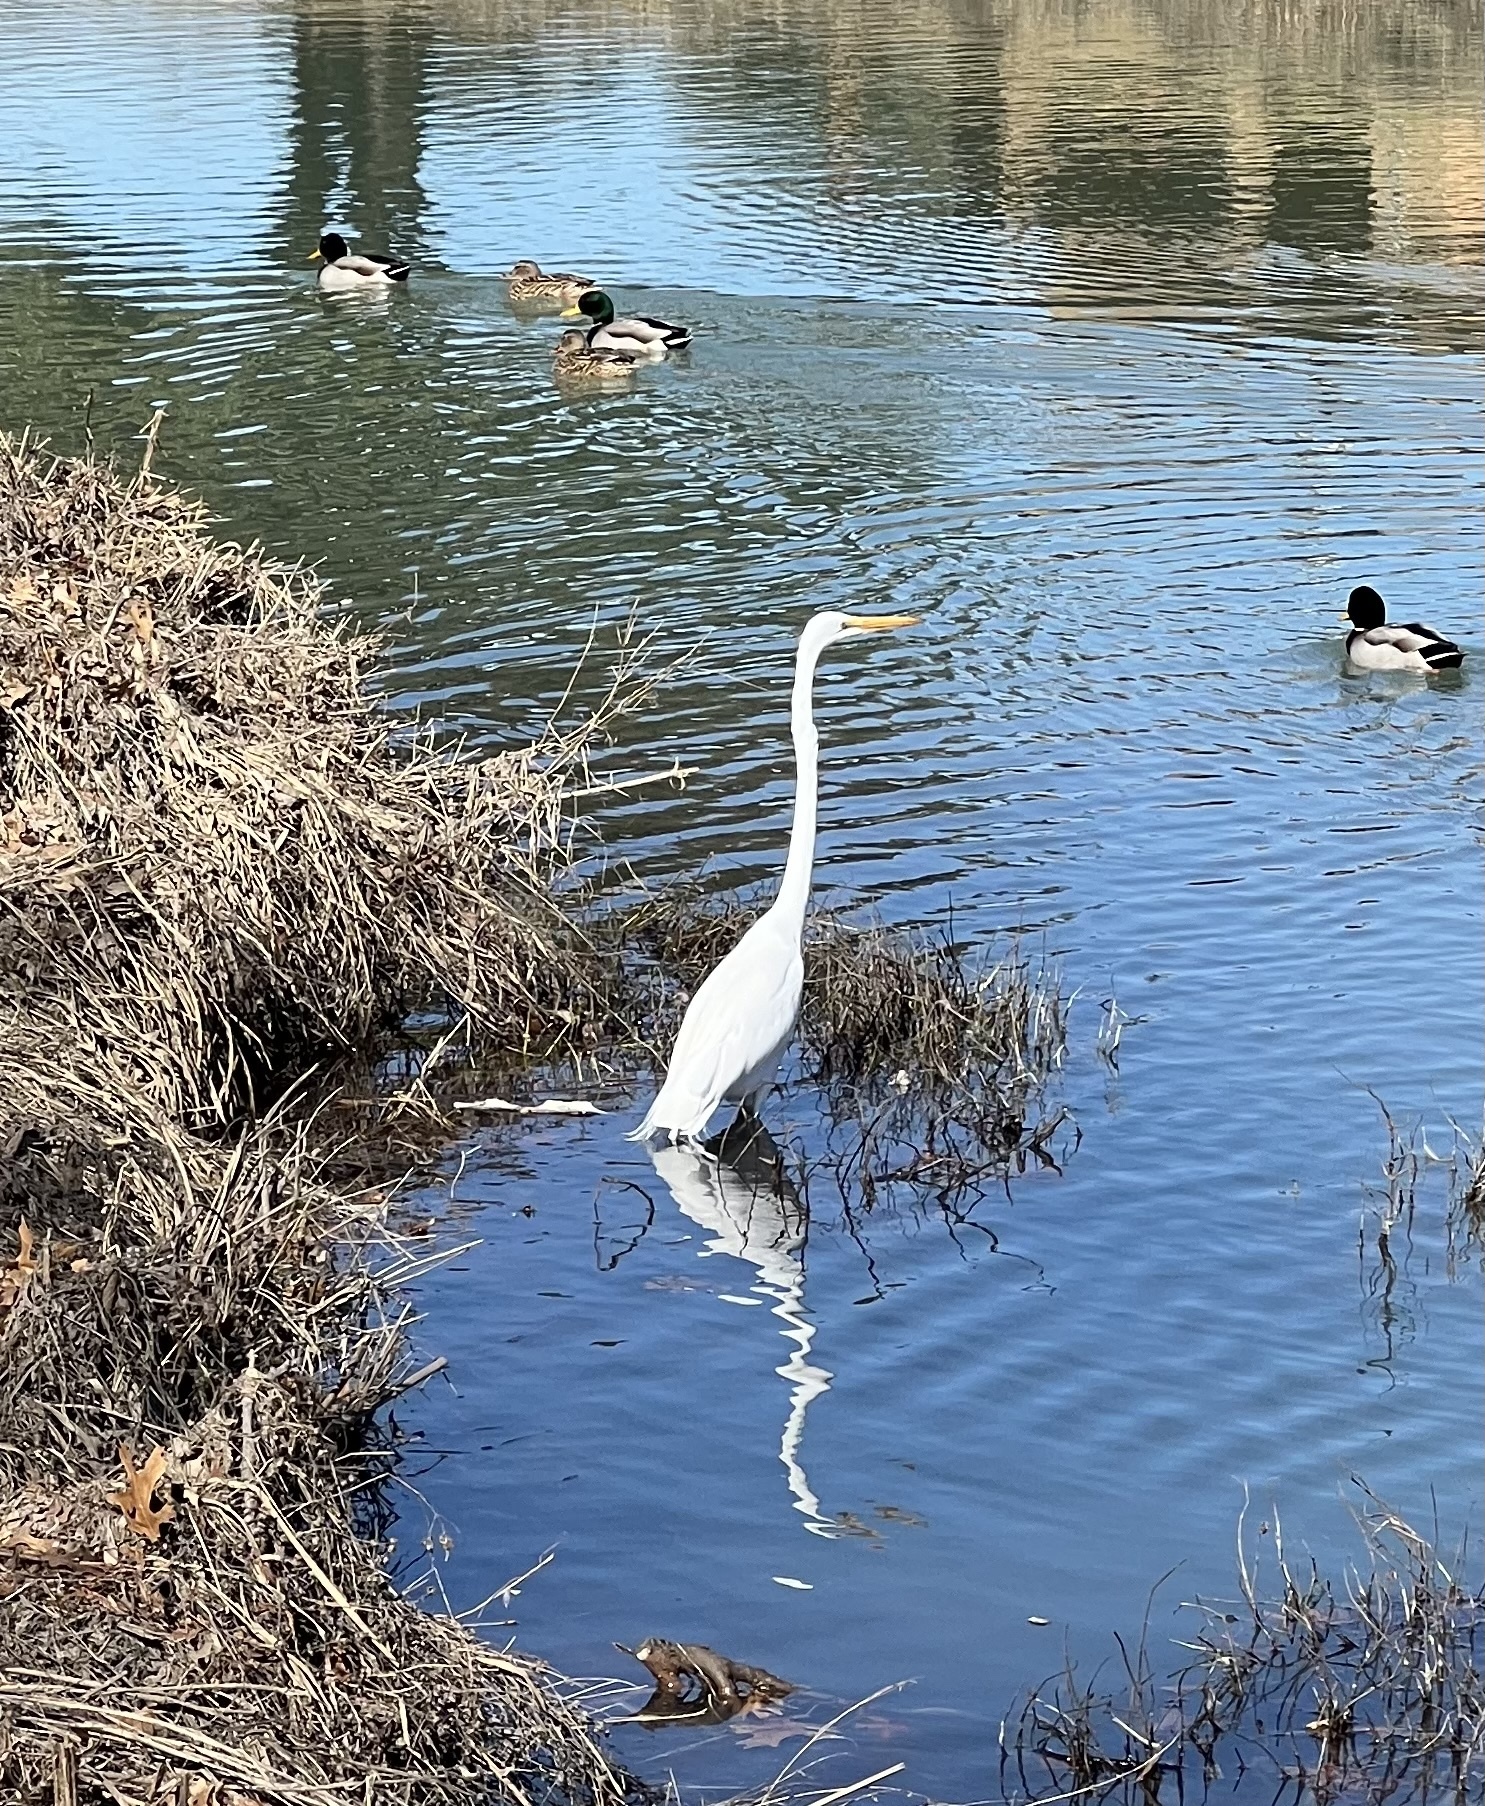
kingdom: Animalia
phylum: Chordata
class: Aves
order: Pelecaniformes
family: Ardeidae
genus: Ardea
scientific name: Ardea alba
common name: Great egret
